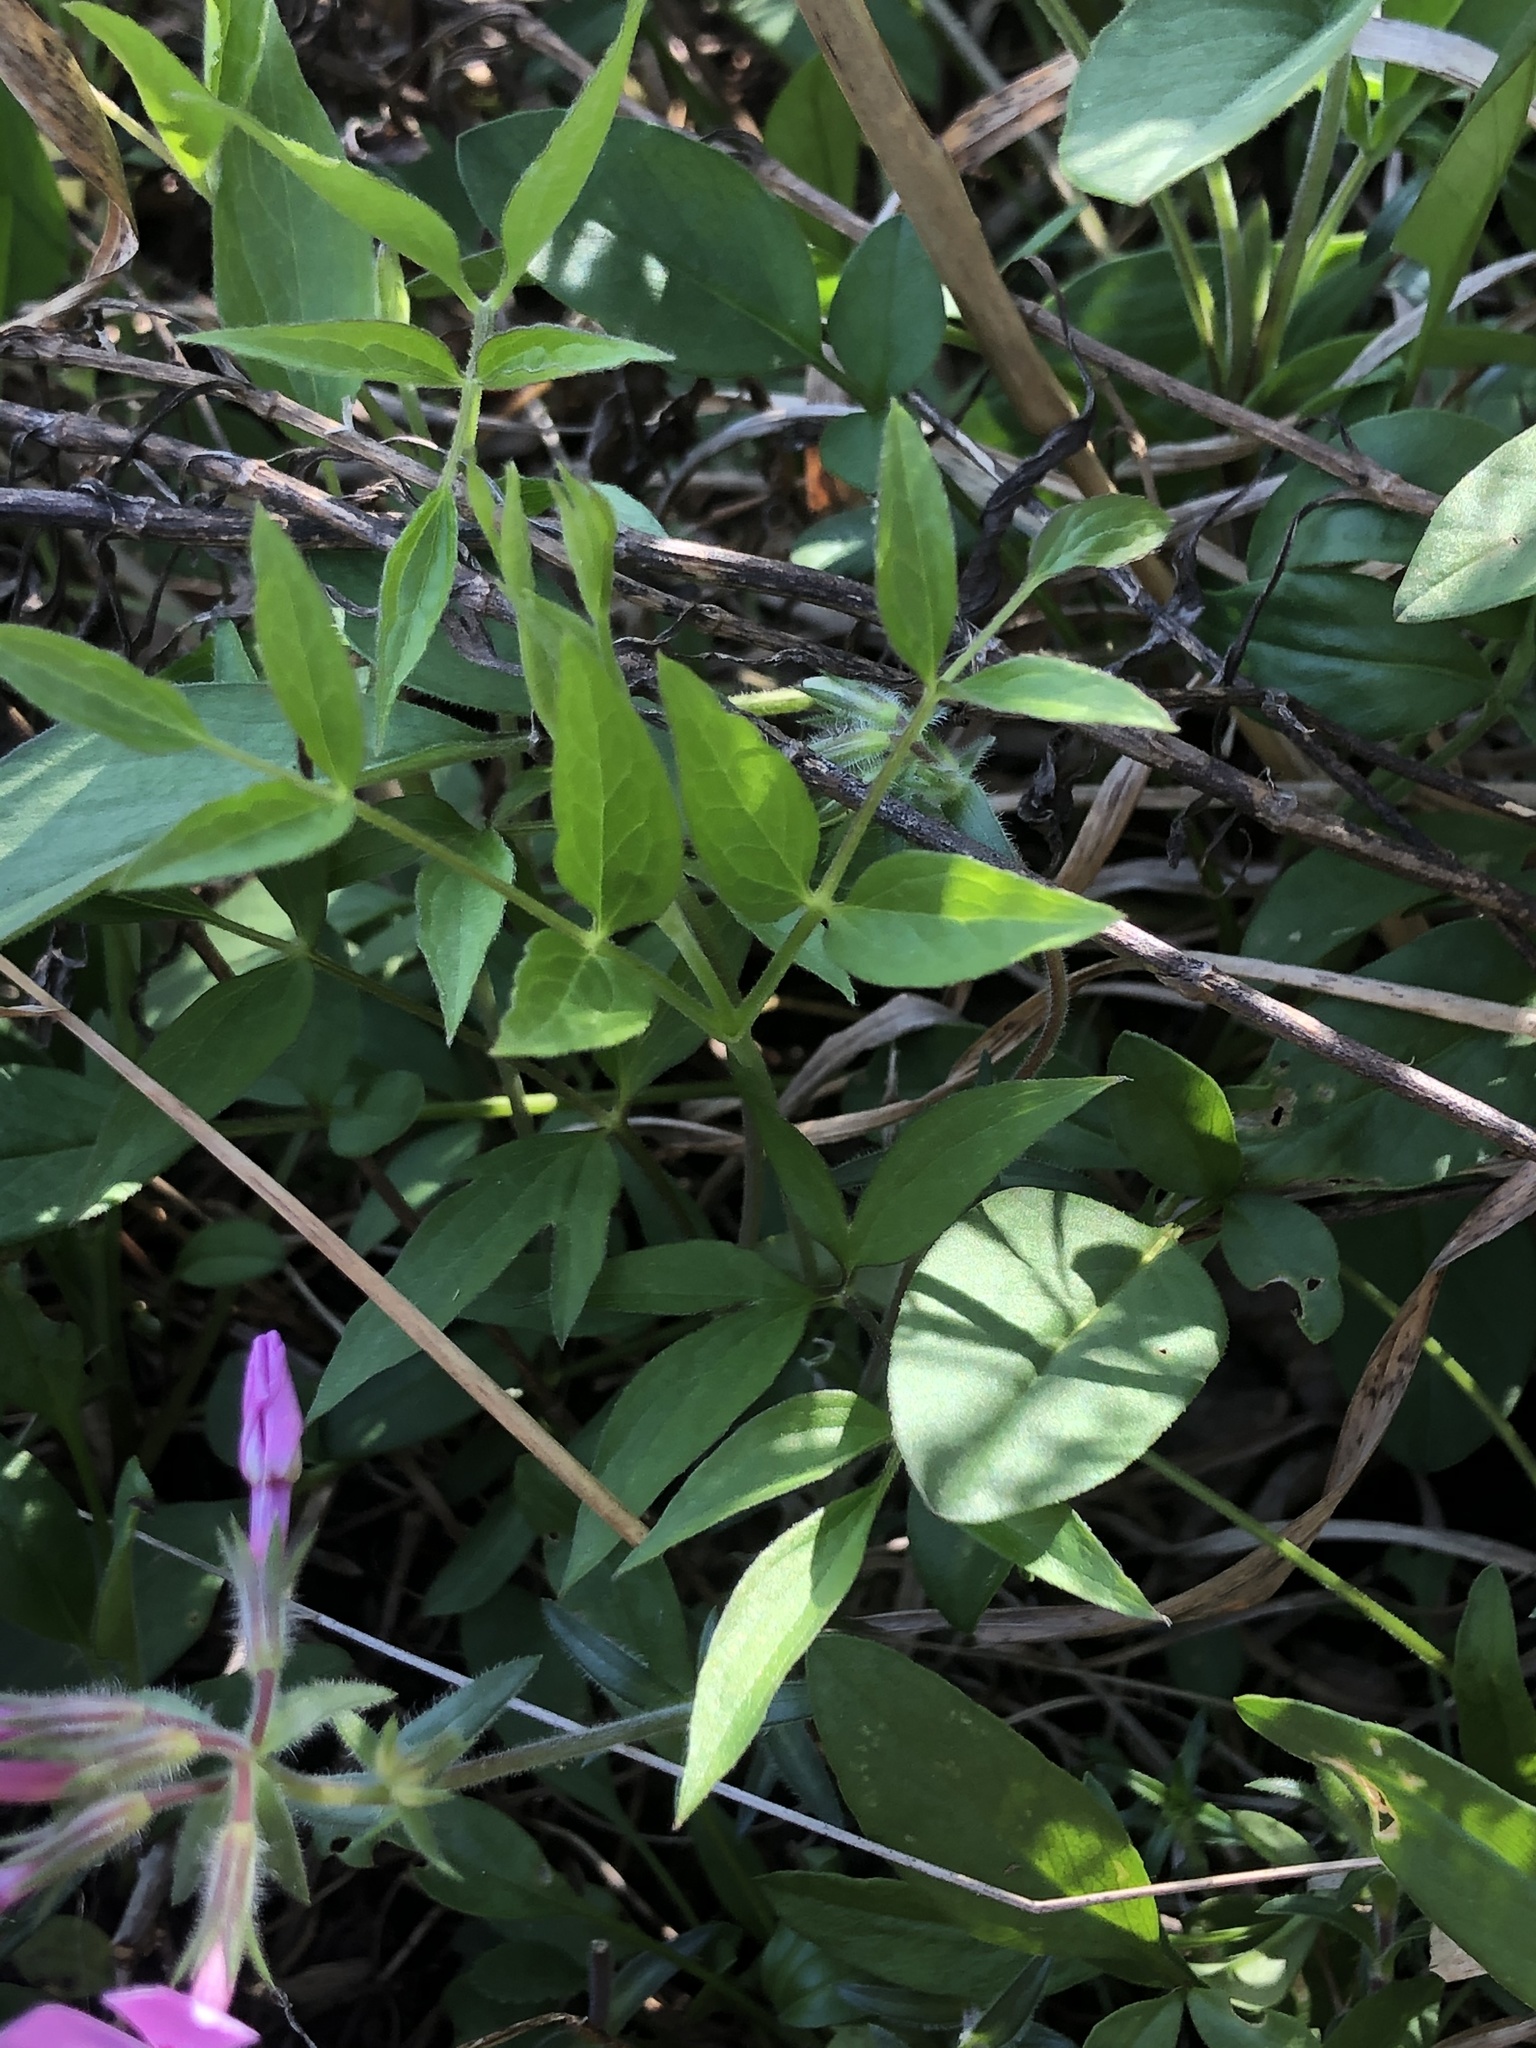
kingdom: Plantae
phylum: Tracheophyta
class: Magnoliopsida
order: Ranunculales
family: Ranunculaceae
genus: Clematis
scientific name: Clematis viorna
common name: Leather-flower
